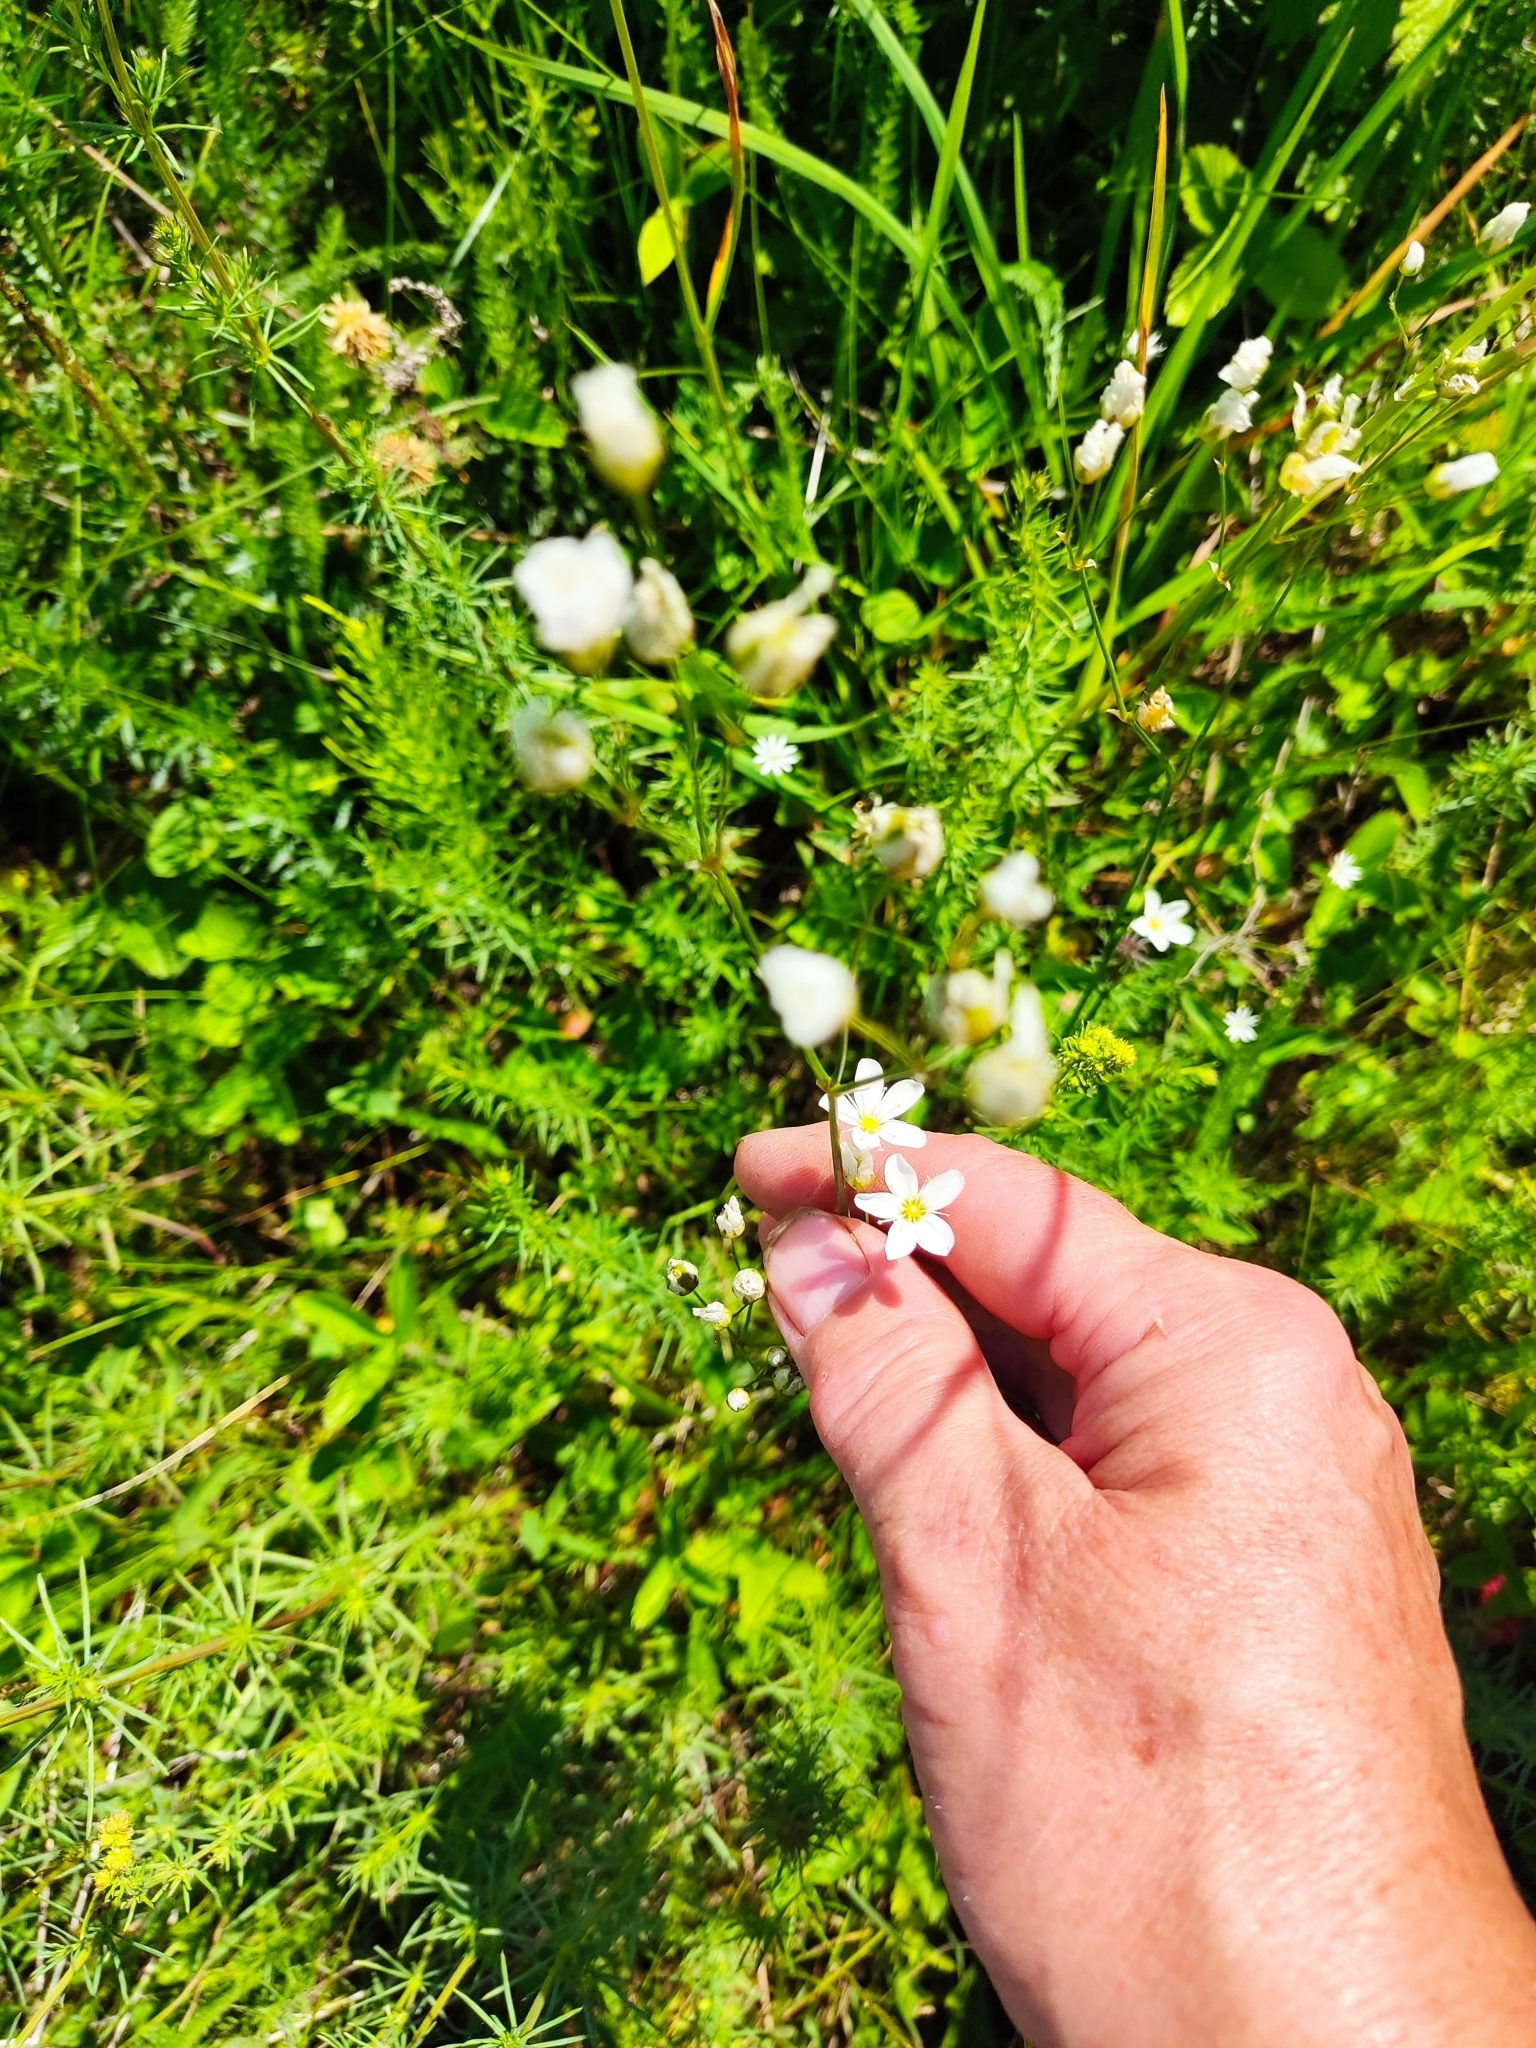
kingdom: Plantae
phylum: Tracheophyta
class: Magnoliopsida
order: Caryophyllales
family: Caryophyllaceae
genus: Eremogone
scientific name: Eremogone saxatilis
